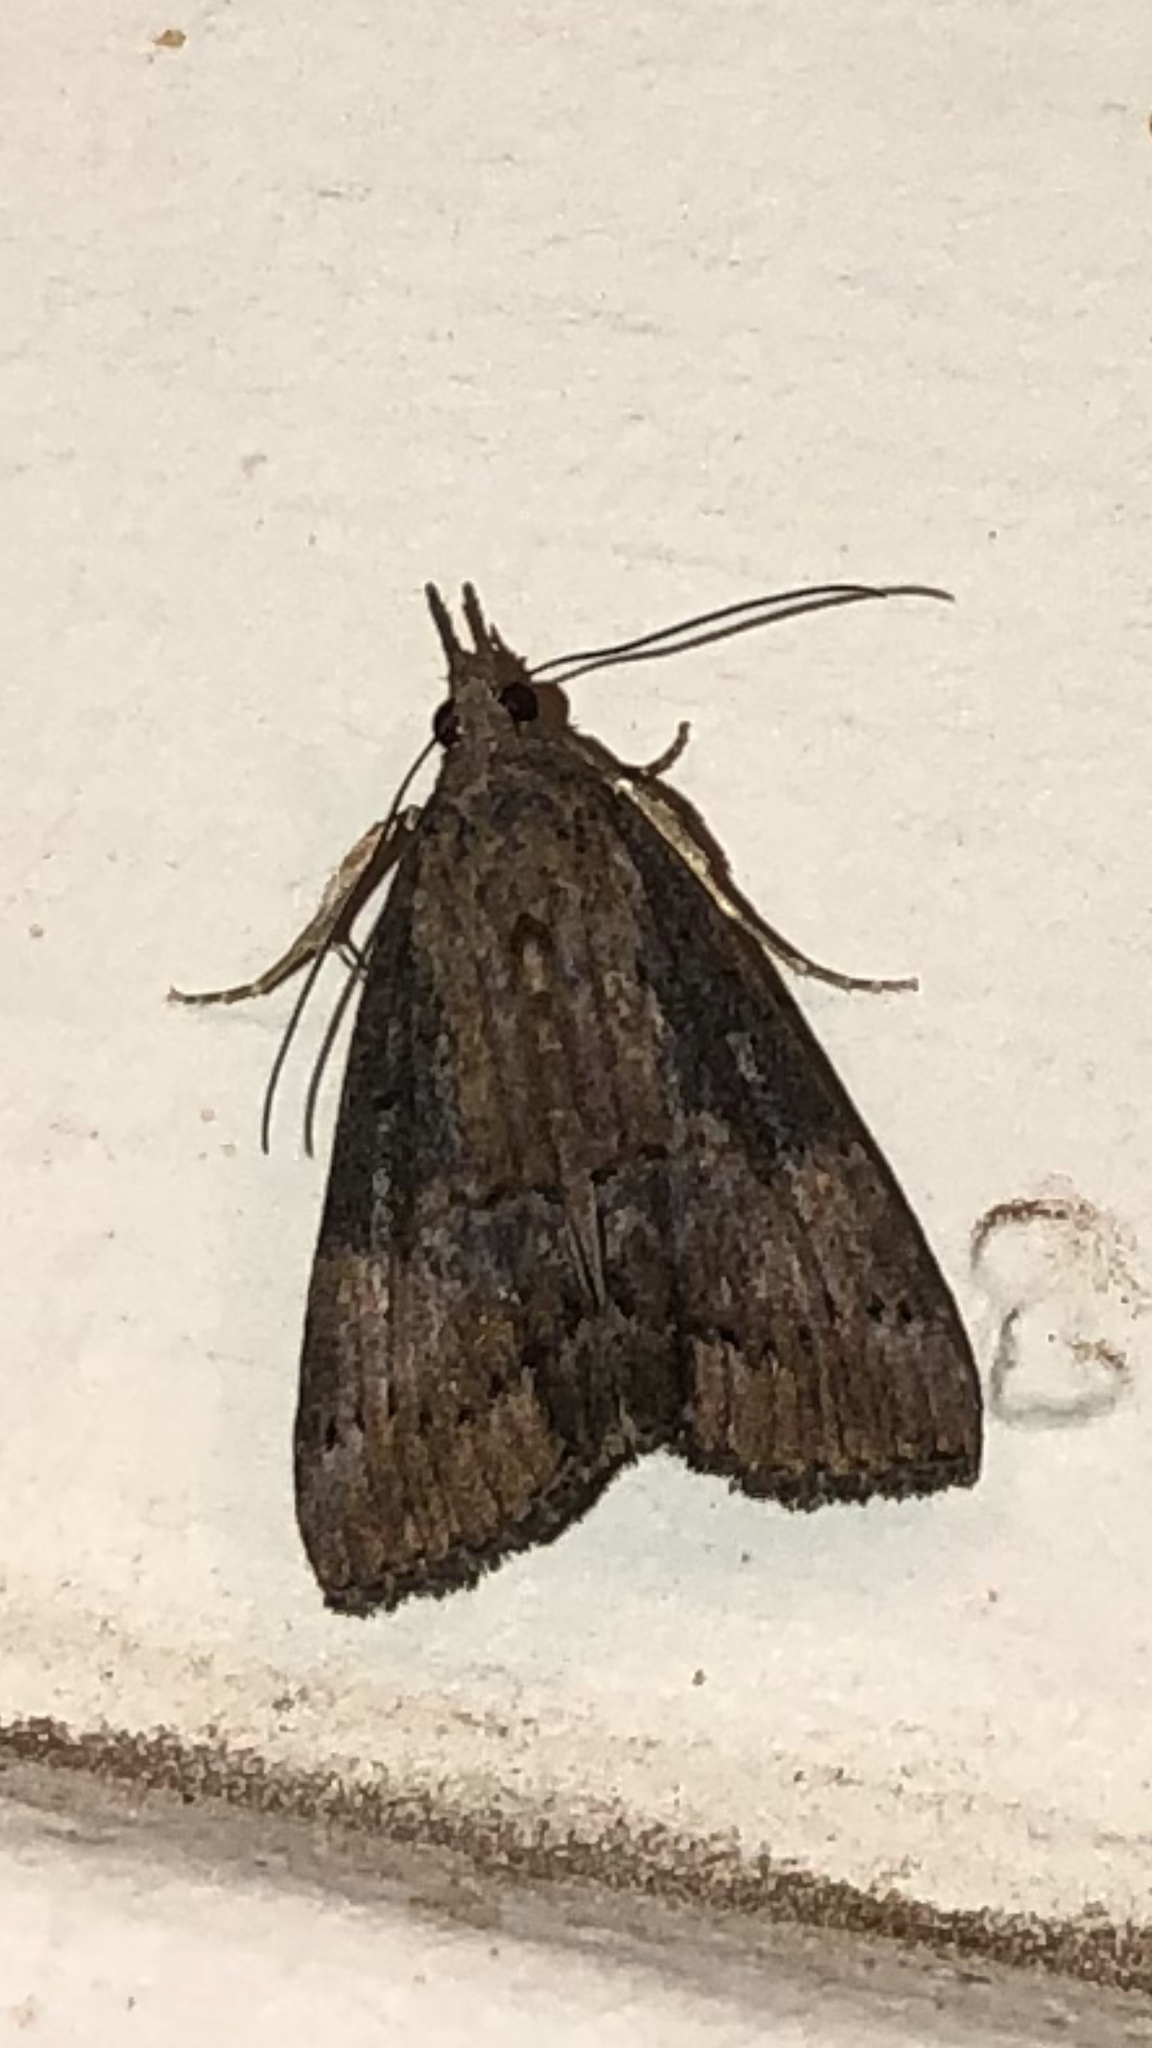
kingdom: Animalia
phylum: Arthropoda
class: Insecta
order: Lepidoptera
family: Erebidae
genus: Hypena
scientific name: Hypena scabra
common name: Green cloverworm
